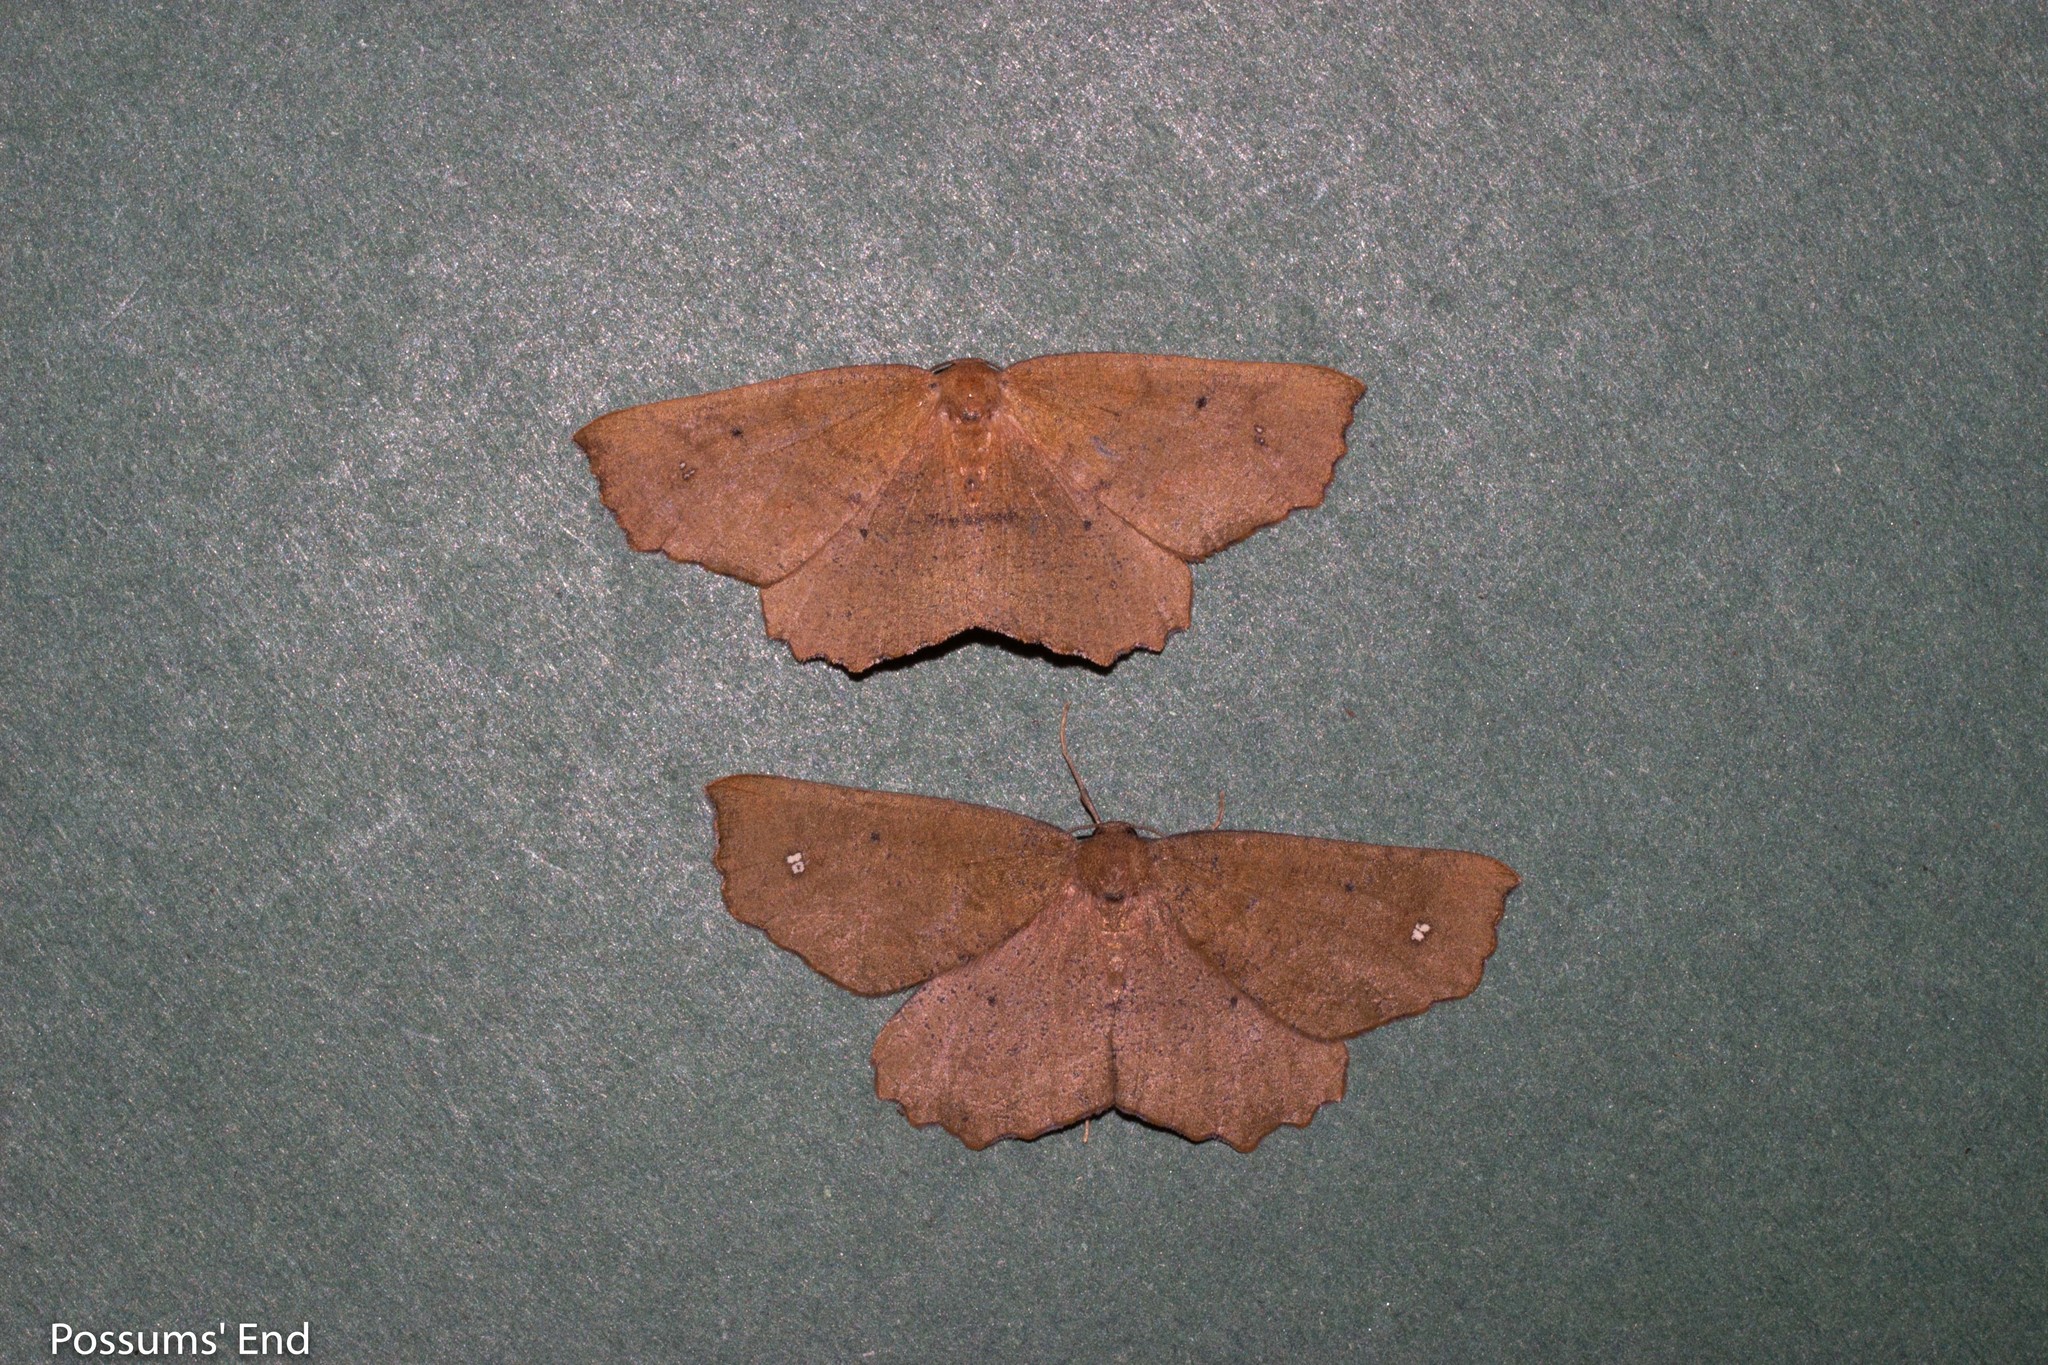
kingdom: Animalia
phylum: Arthropoda
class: Insecta
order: Lepidoptera
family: Geometridae
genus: Xyridacma
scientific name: Xyridacma ustaria
